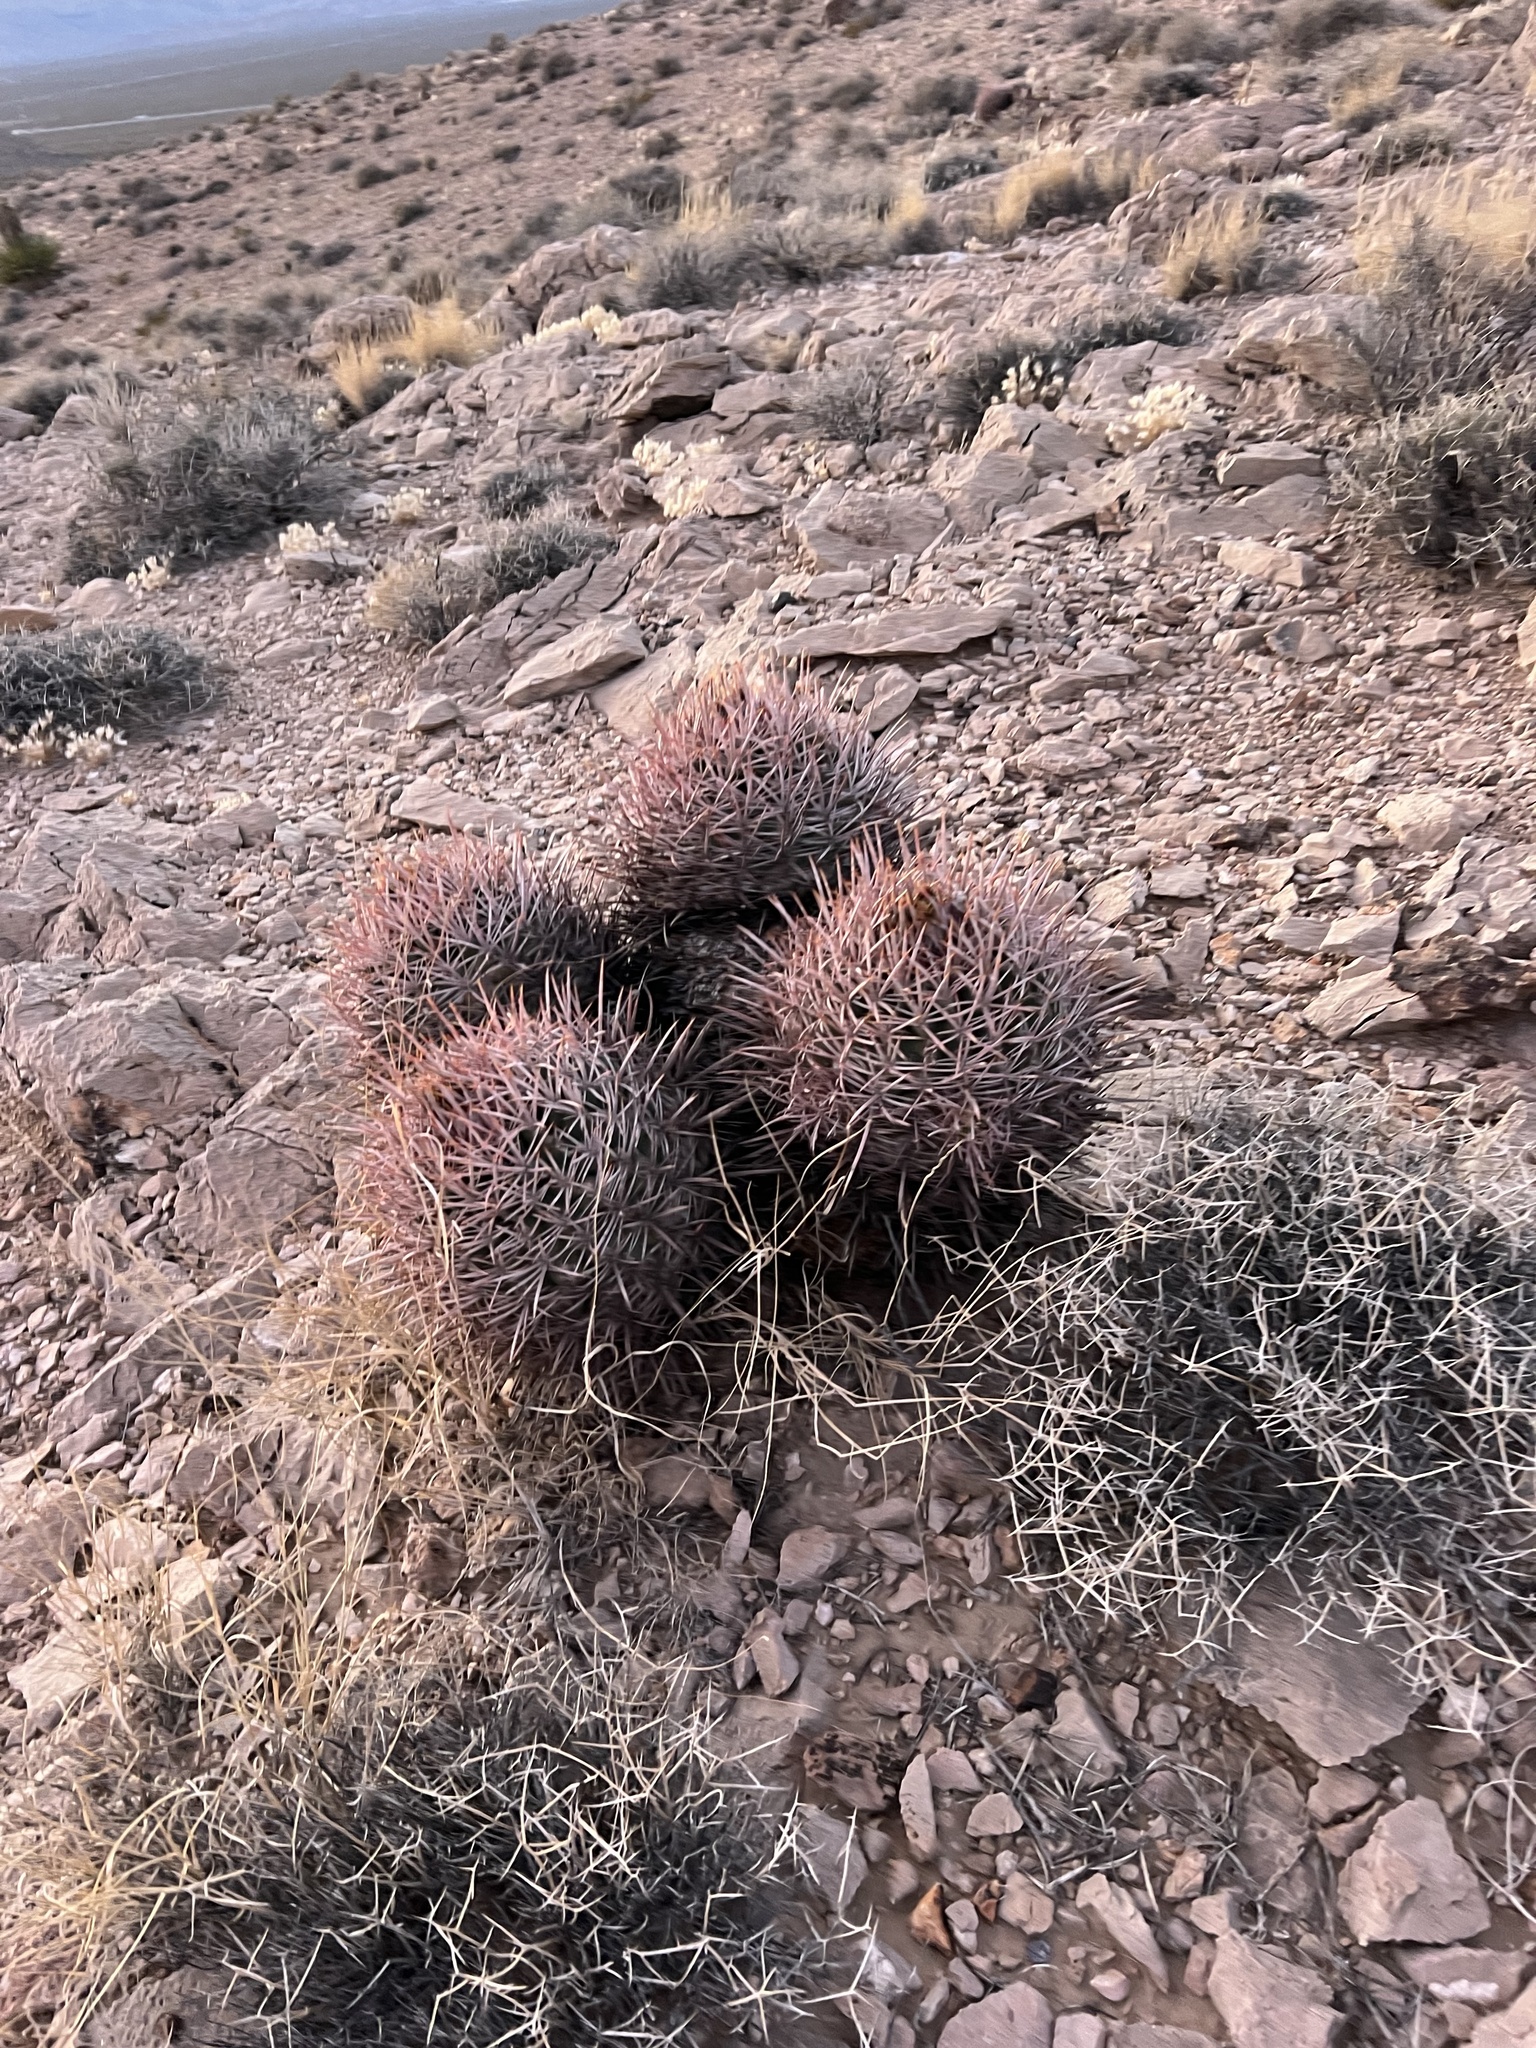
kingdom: Plantae
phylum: Tracheophyta
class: Magnoliopsida
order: Caryophyllales
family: Cactaceae
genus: Echinocactus
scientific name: Echinocactus polycephalus
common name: Cottontop cactus
